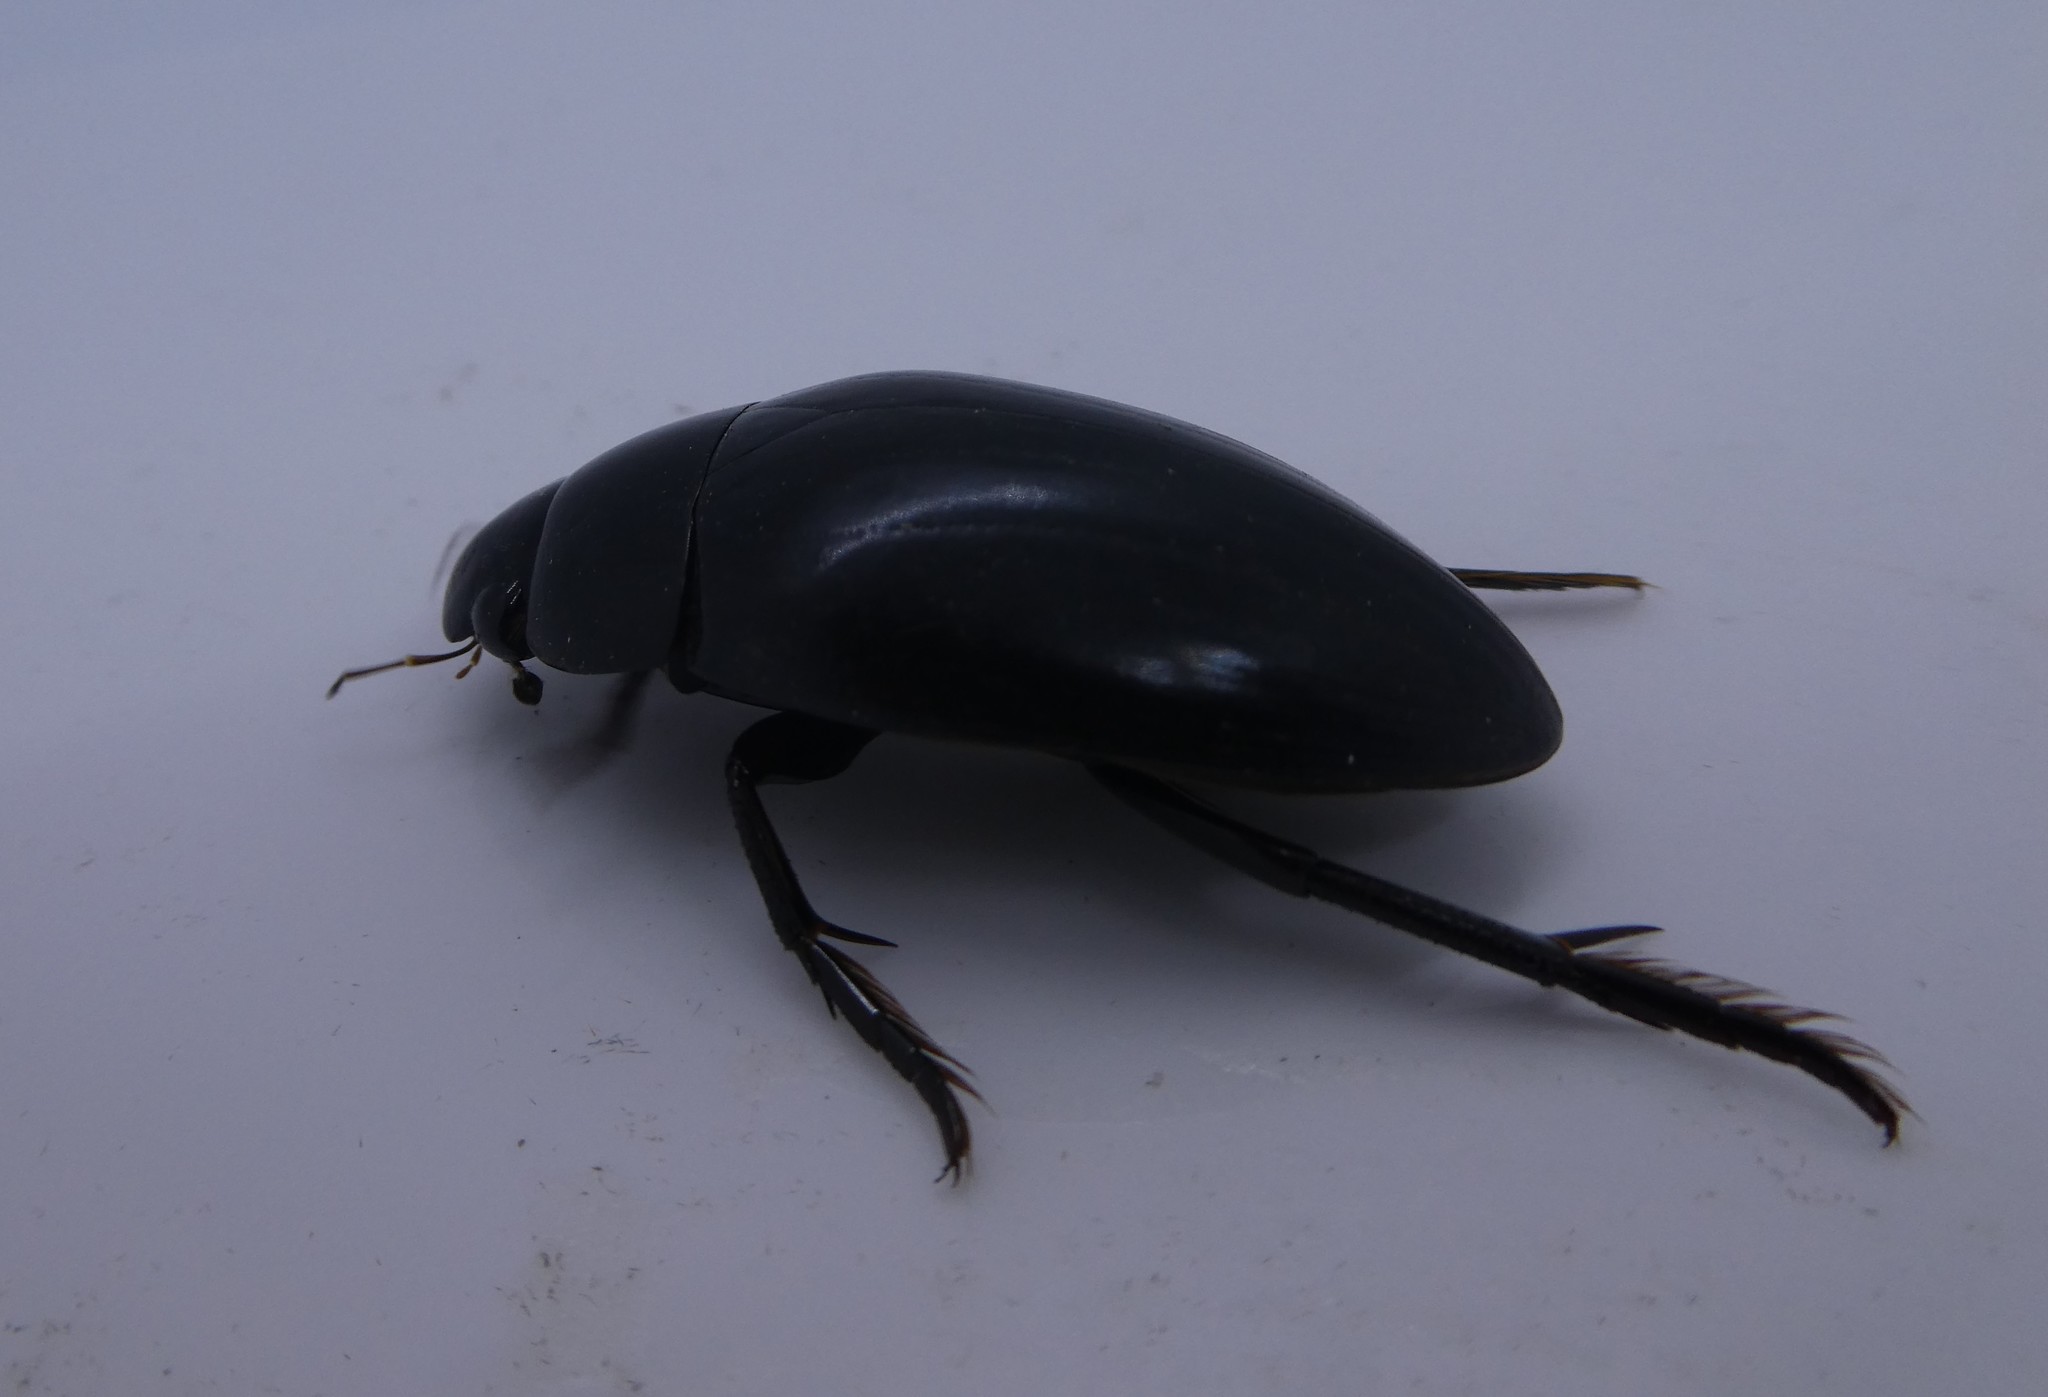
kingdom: Animalia
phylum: Arthropoda
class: Insecta
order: Coleoptera
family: Hydrophilidae
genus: Hydrophilus
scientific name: Hydrophilus ovatus
